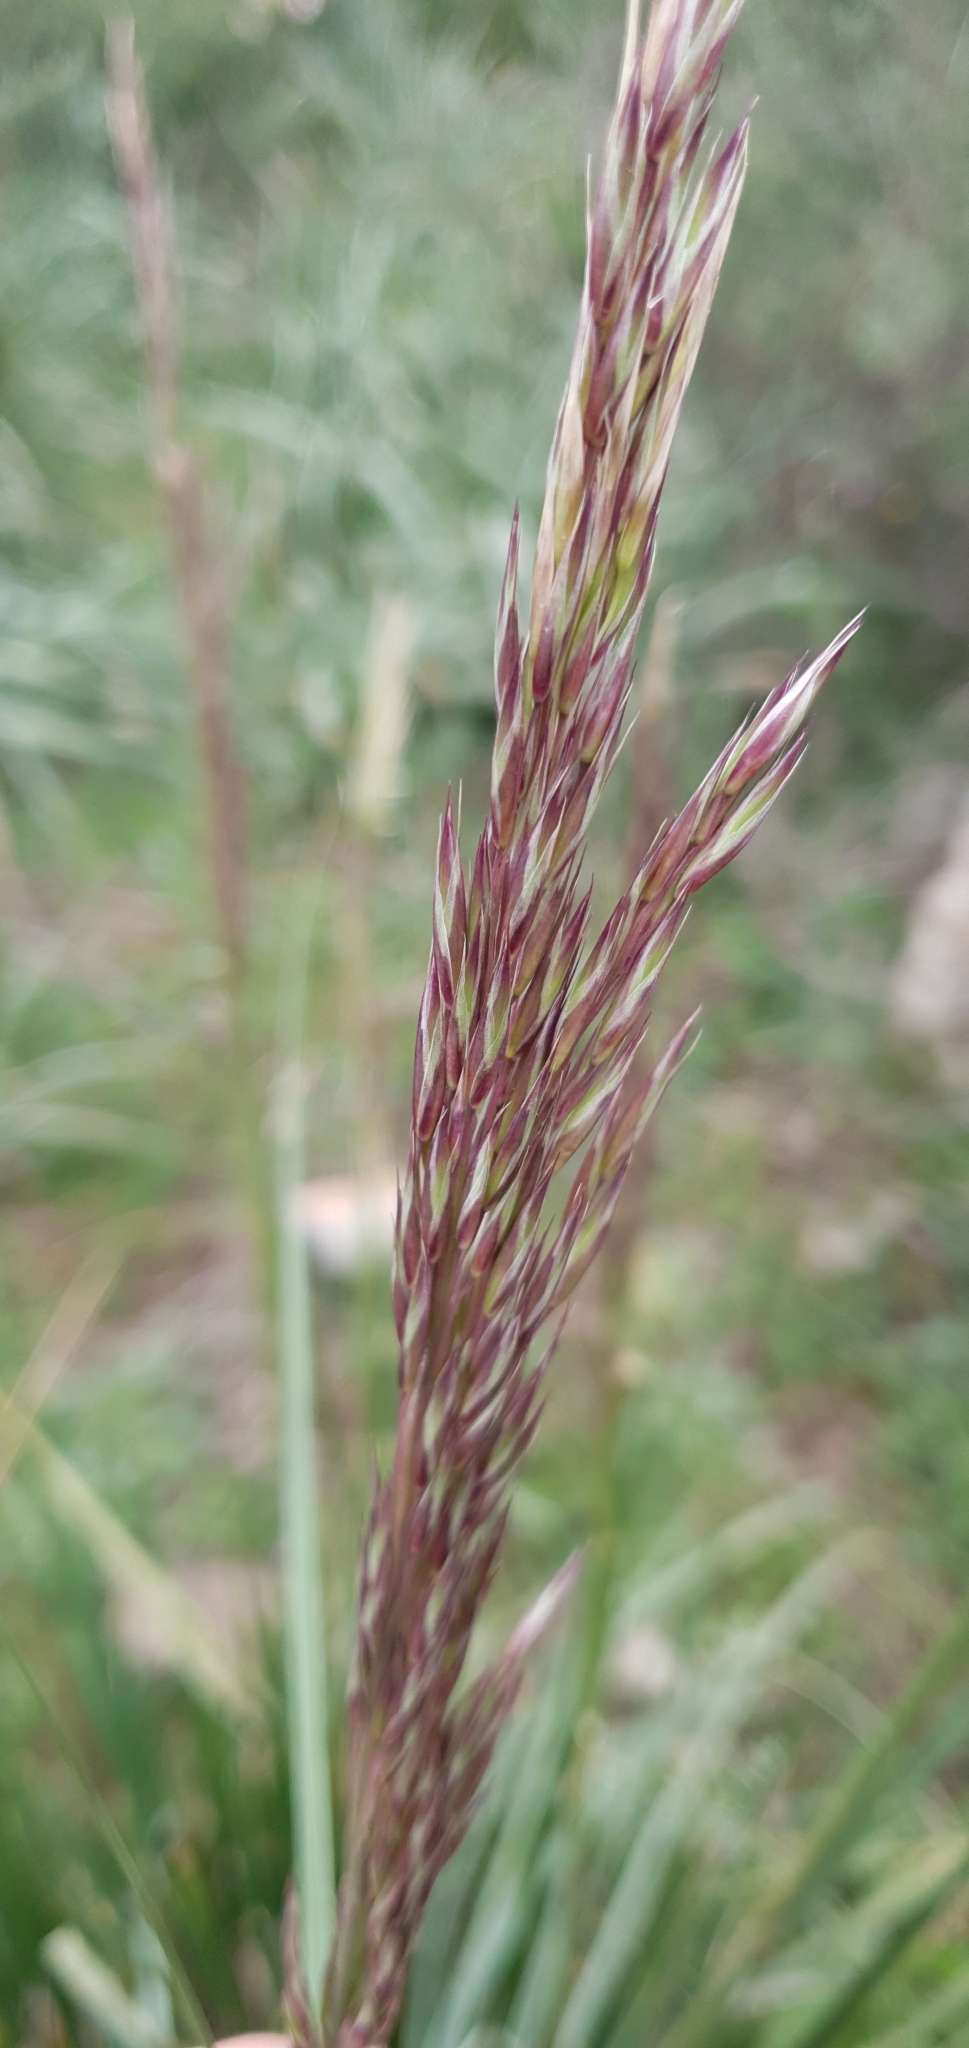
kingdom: Plantae
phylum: Tracheophyta
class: Liliopsida
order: Poales
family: Poaceae
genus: Ampelodesmos
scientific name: Ampelodesmos mauritanicus
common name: Mauritanian grass
